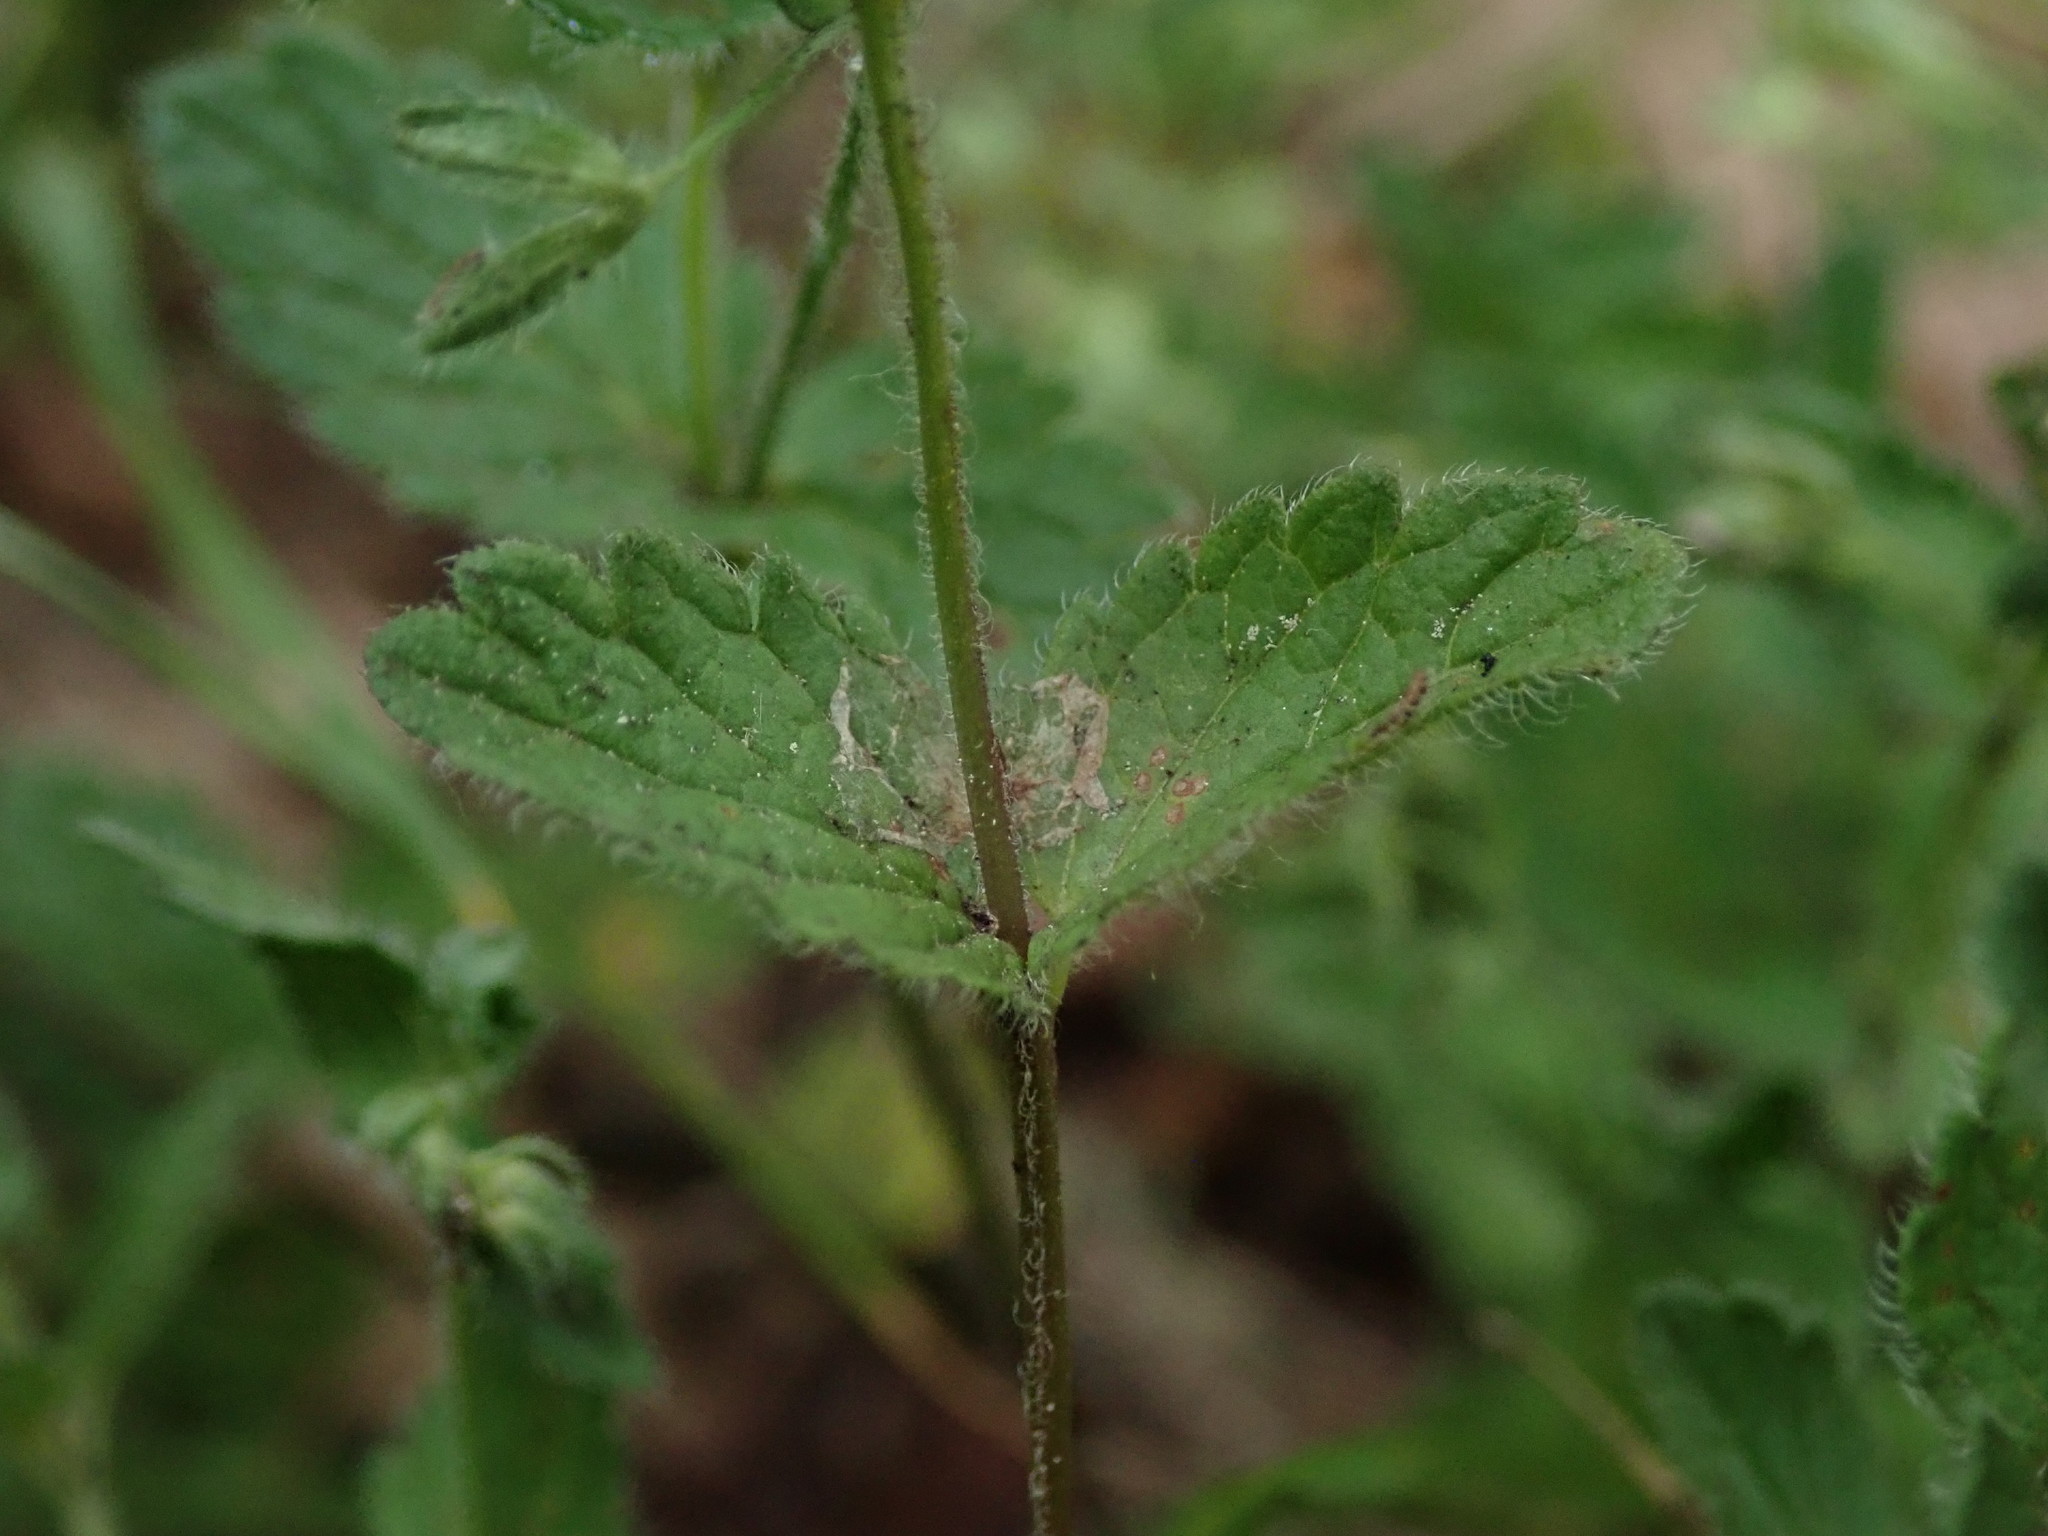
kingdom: Plantae
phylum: Tracheophyta
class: Magnoliopsida
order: Lamiales
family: Plantaginaceae
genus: Veronica
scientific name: Veronica chamaedrys
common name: Germander speedwell
